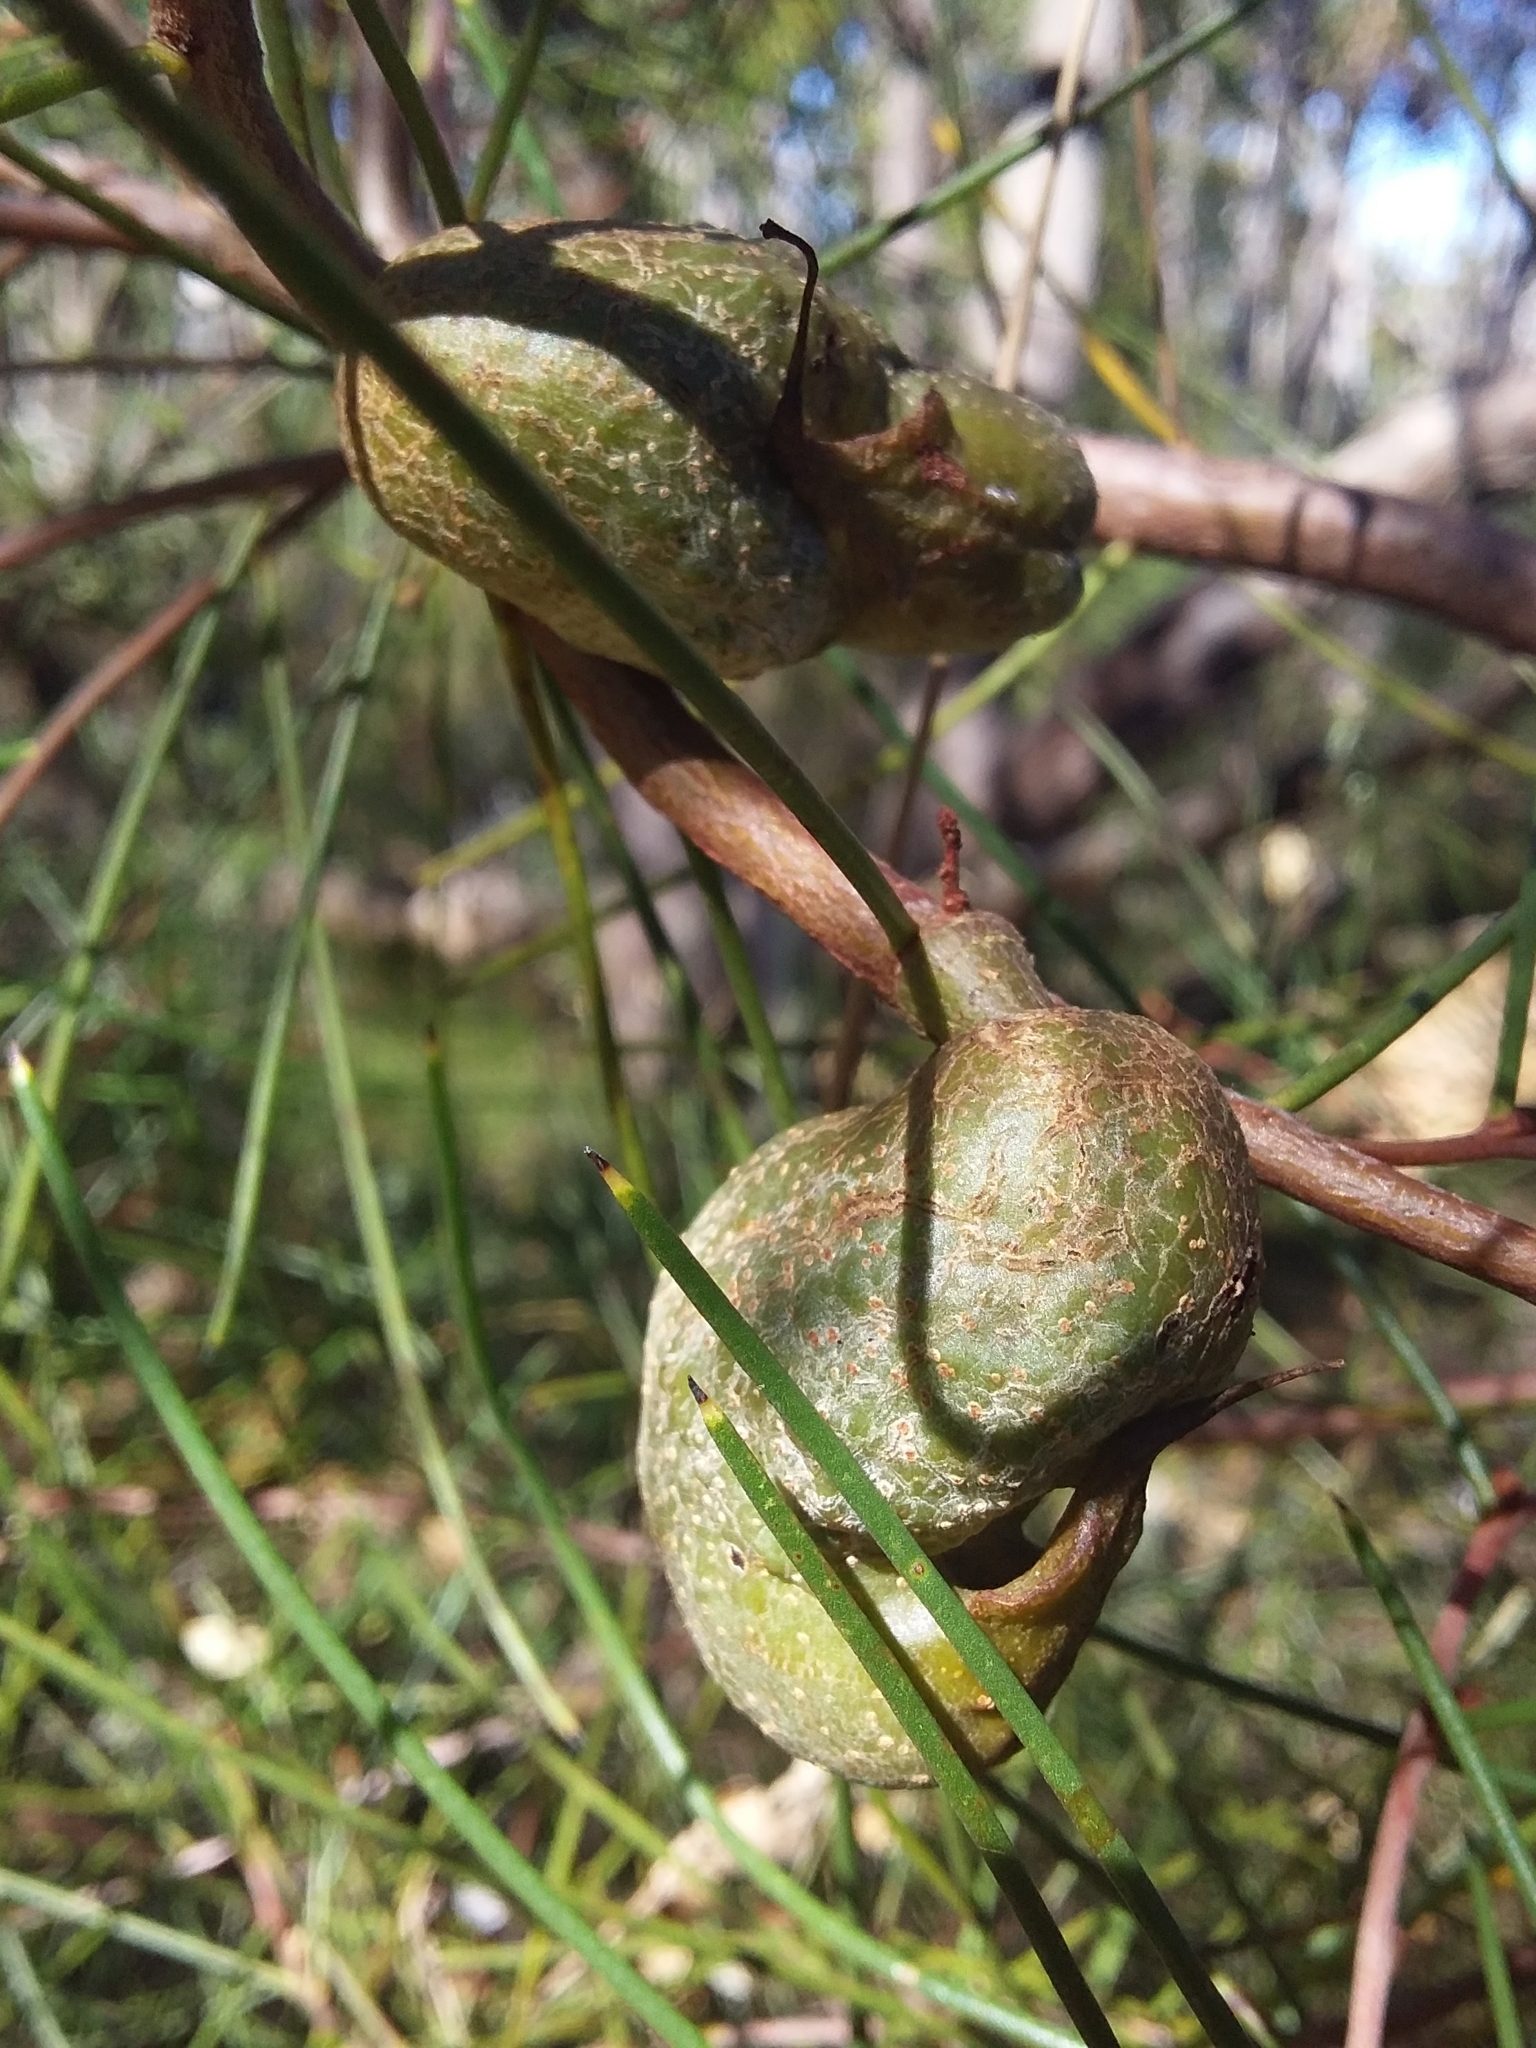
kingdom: Plantae
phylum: Tracheophyta
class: Magnoliopsida
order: Proteales
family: Proteaceae
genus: Hakea
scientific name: Hakea rostrata
